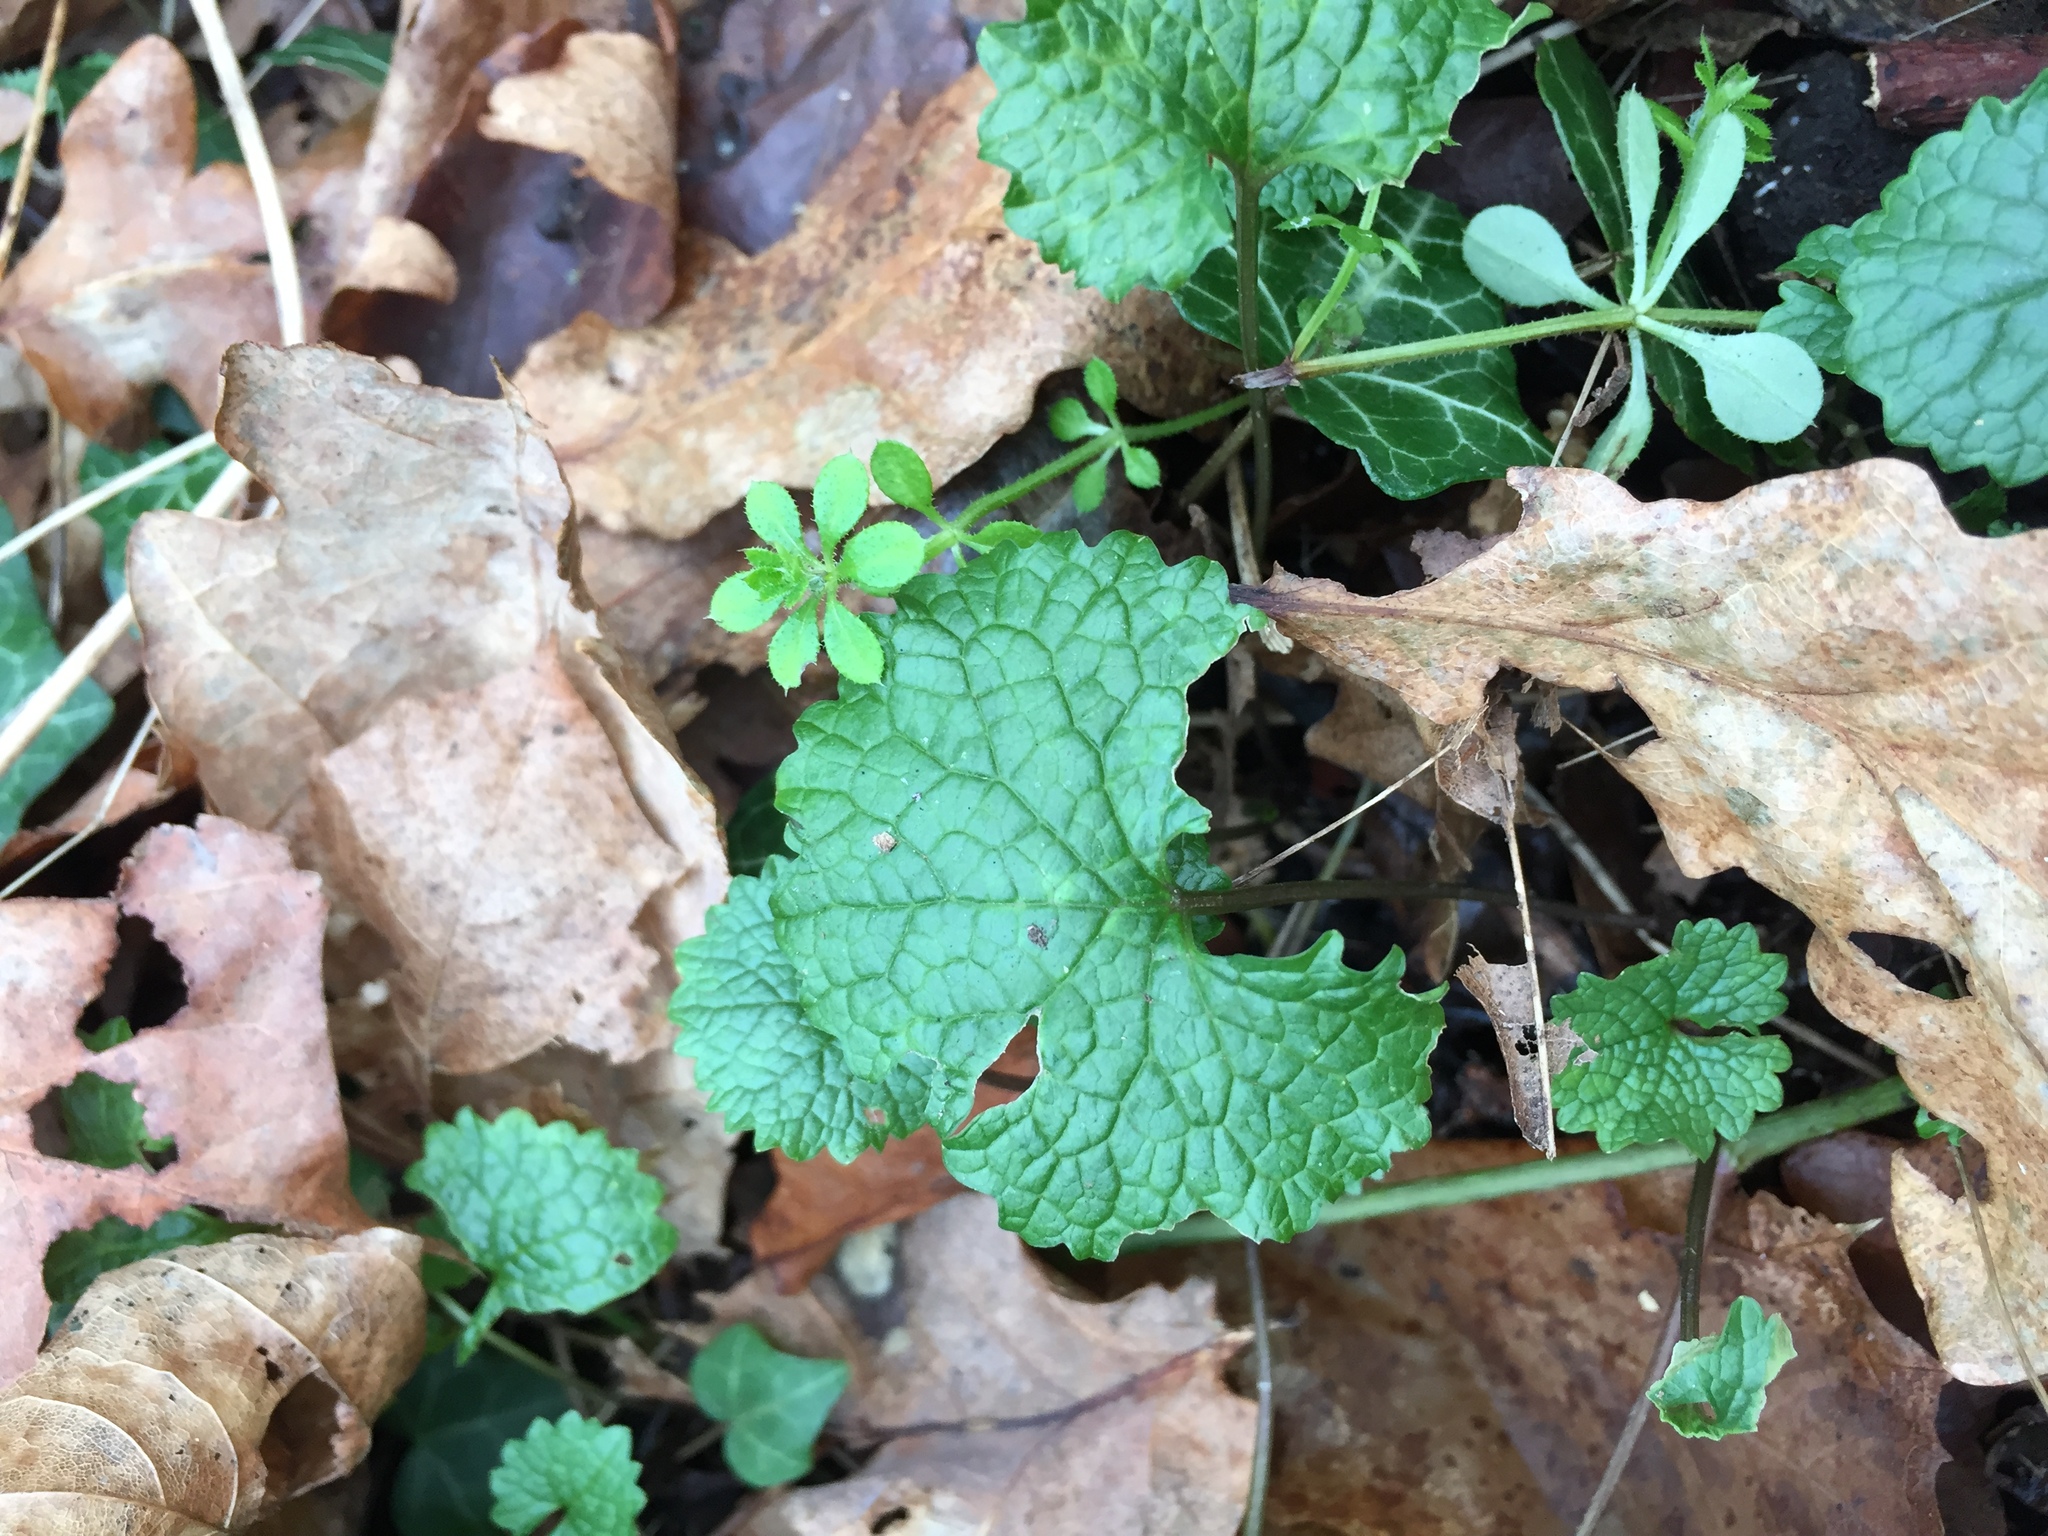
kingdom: Plantae
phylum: Tracheophyta
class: Magnoliopsida
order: Brassicales
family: Brassicaceae
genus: Alliaria
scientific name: Alliaria petiolata
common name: Garlic mustard
